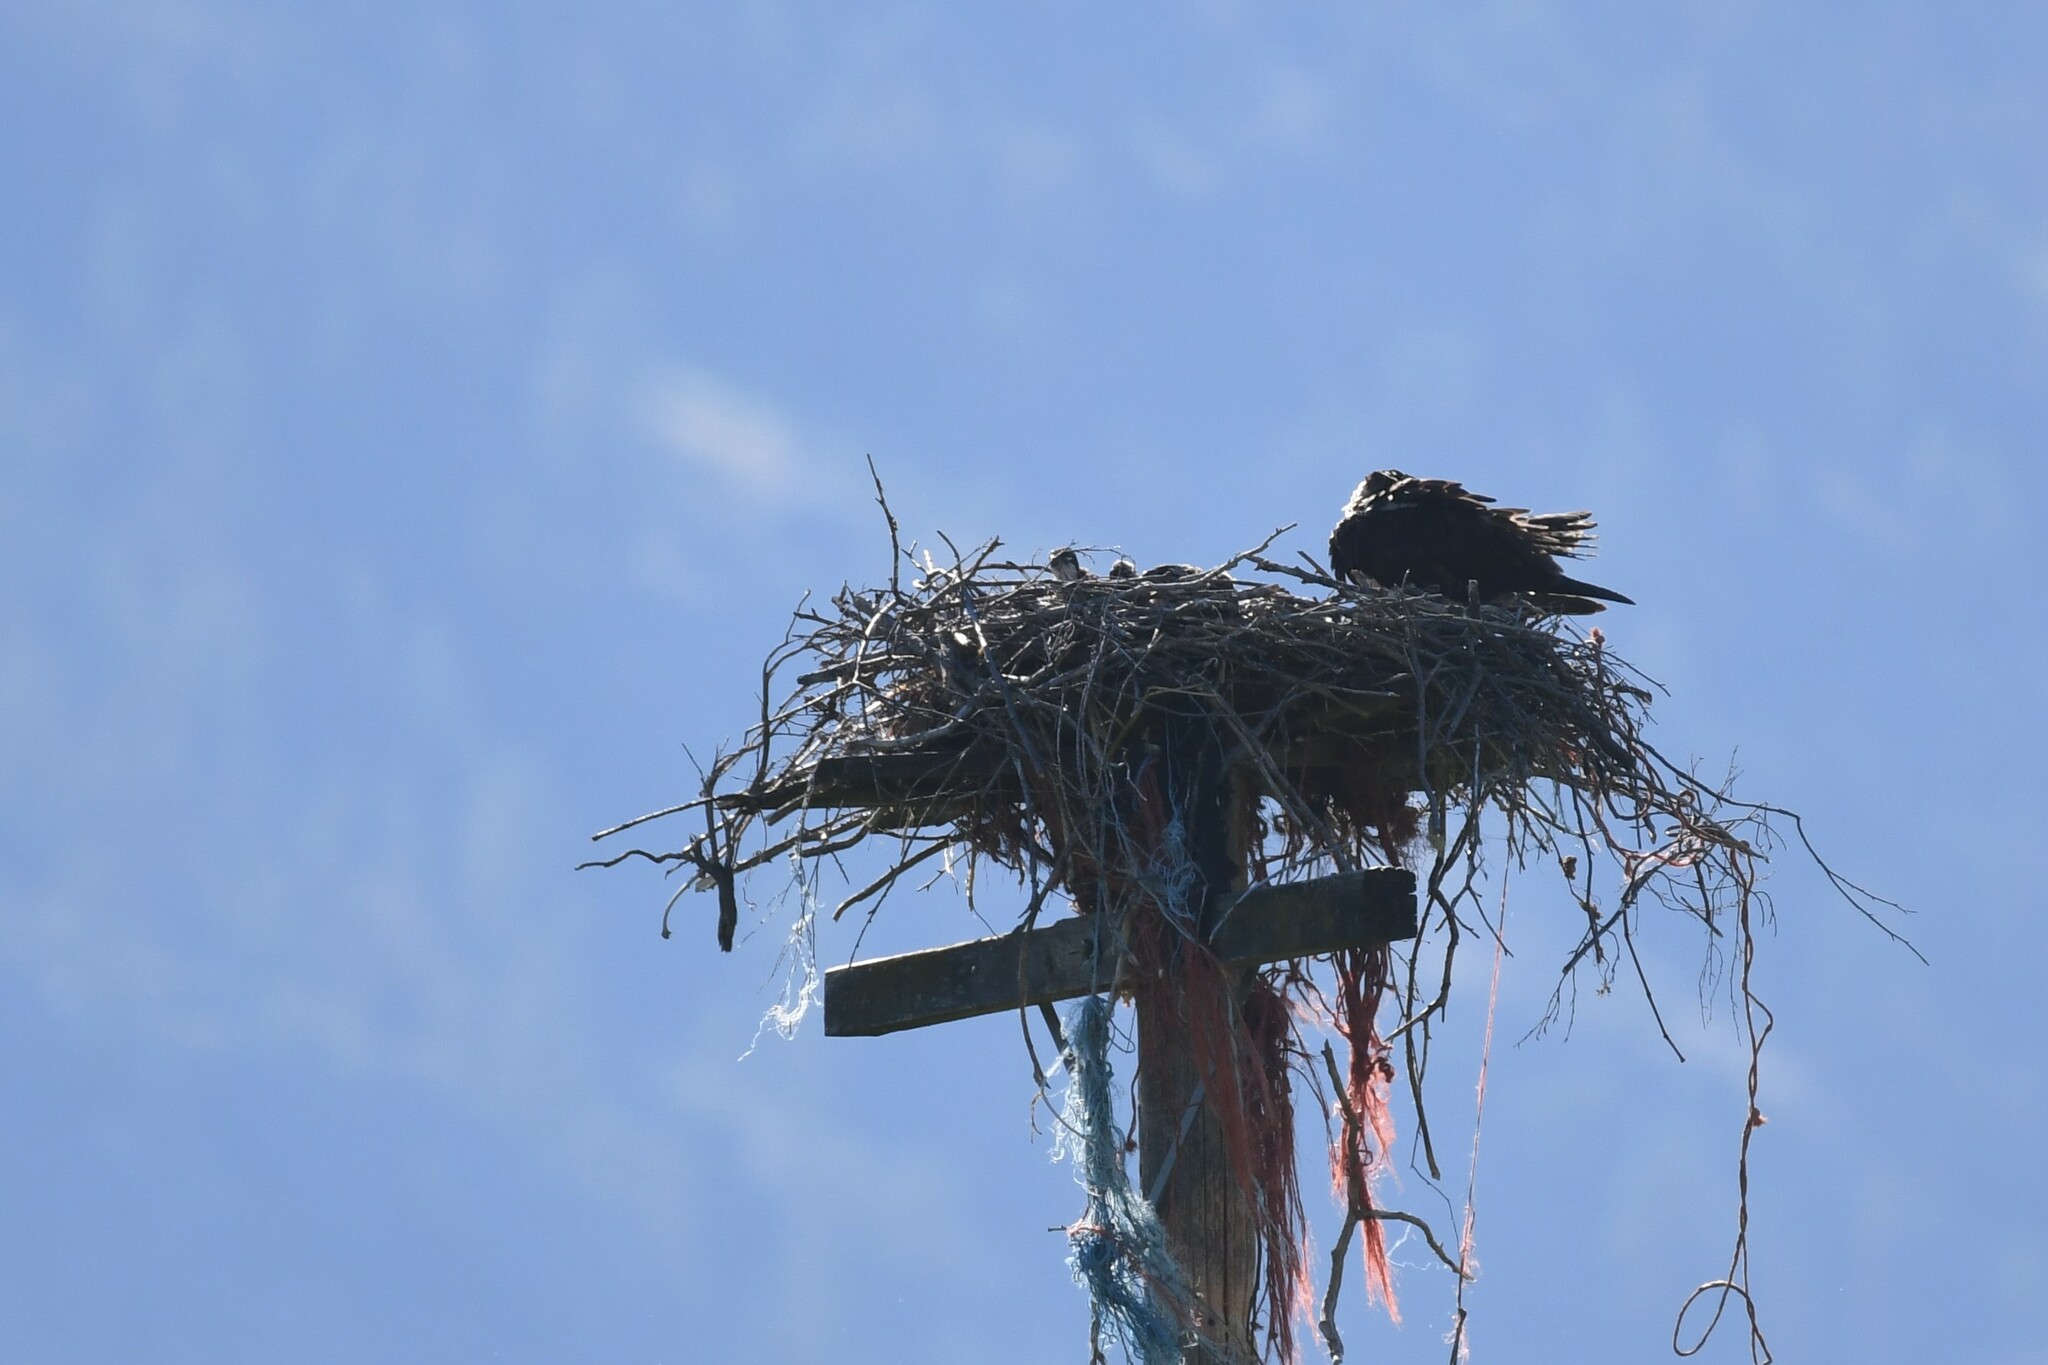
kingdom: Animalia
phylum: Chordata
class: Aves
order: Accipitriformes
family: Pandionidae
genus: Pandion
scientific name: Pandion haliaetus
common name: Osprey
